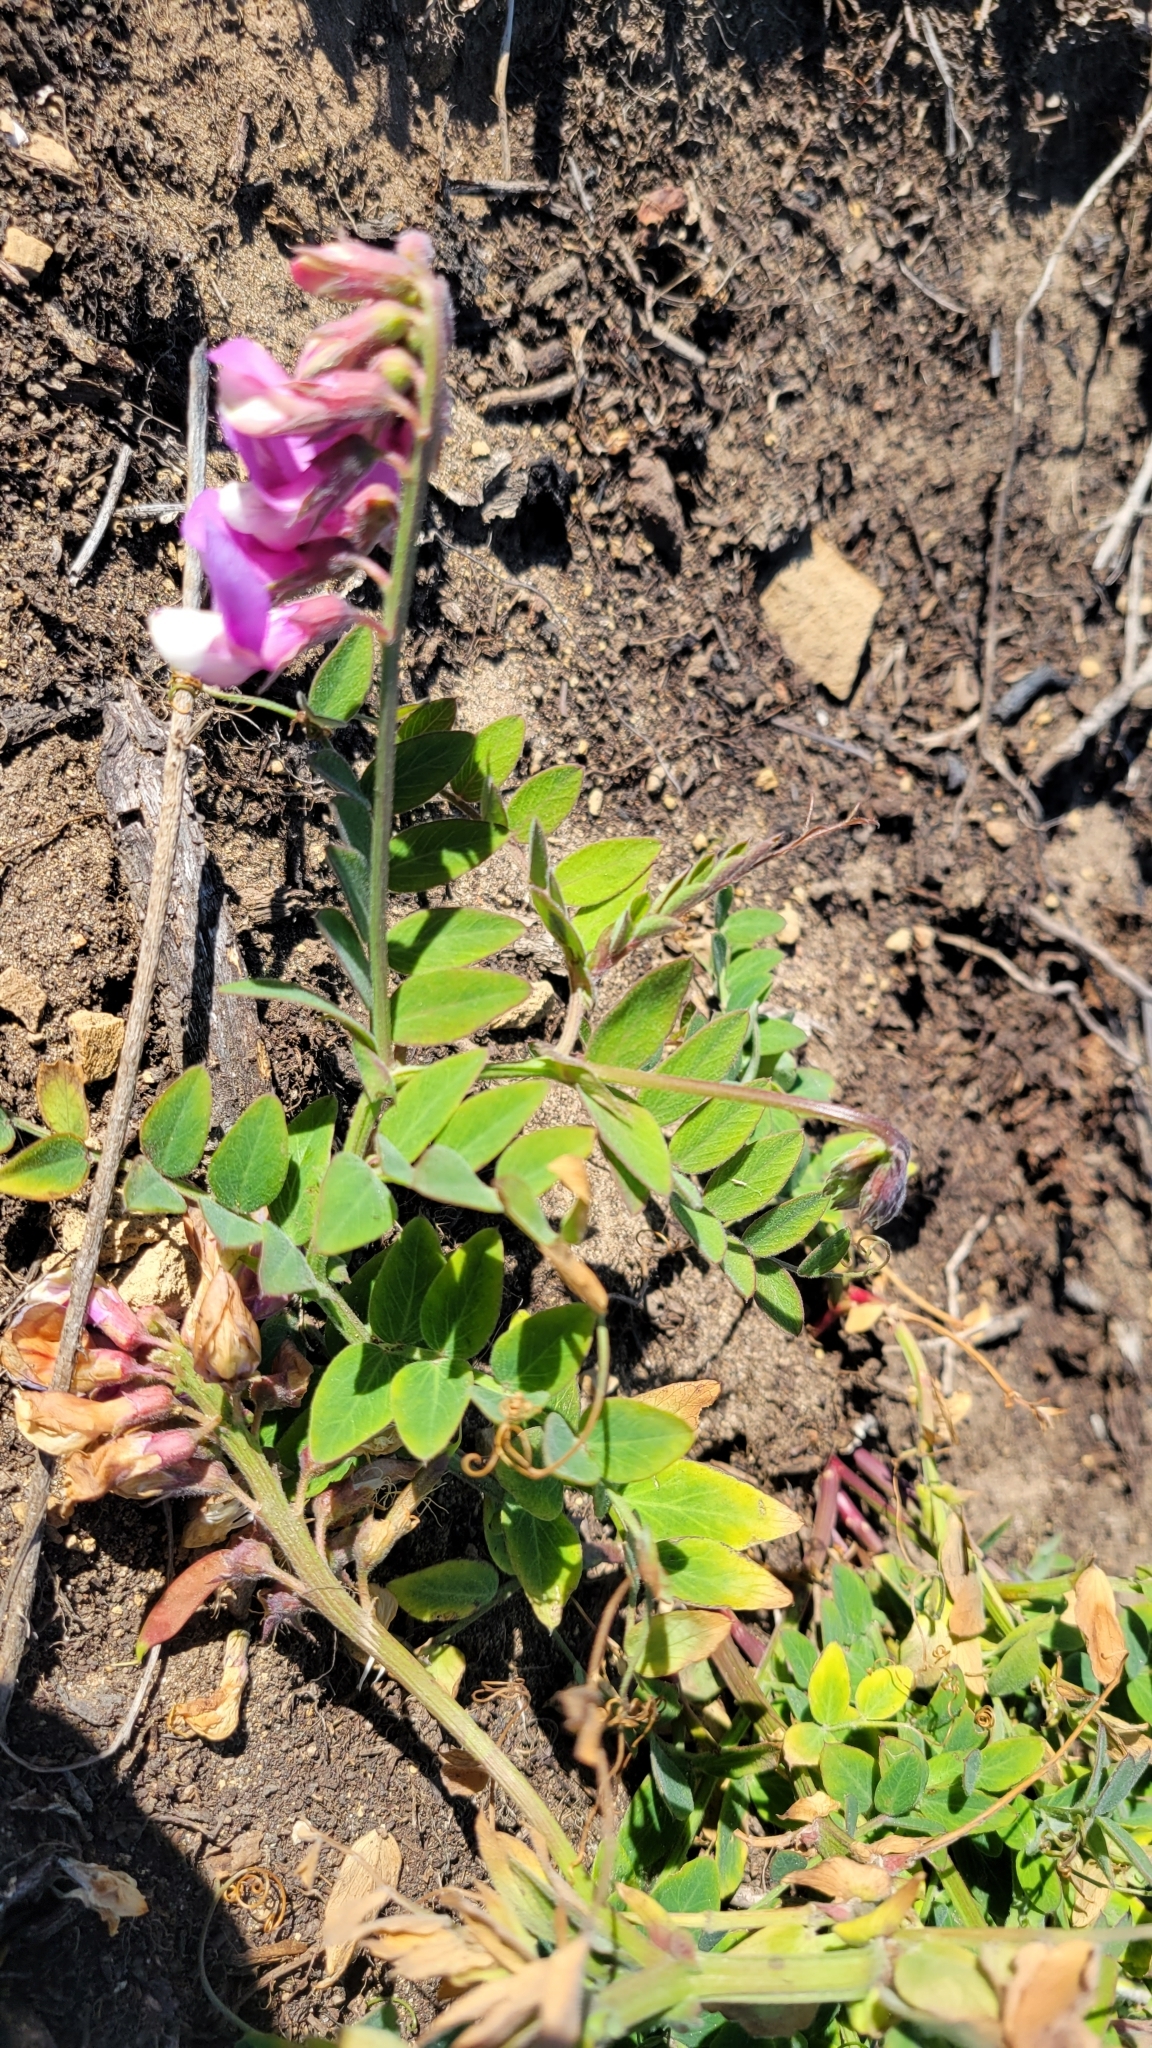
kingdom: Plantae
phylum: Tracheophyta
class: Magnoliopsida
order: Fabales
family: Fabaceae
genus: Lathyrus
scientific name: Lathyrus vestitus
